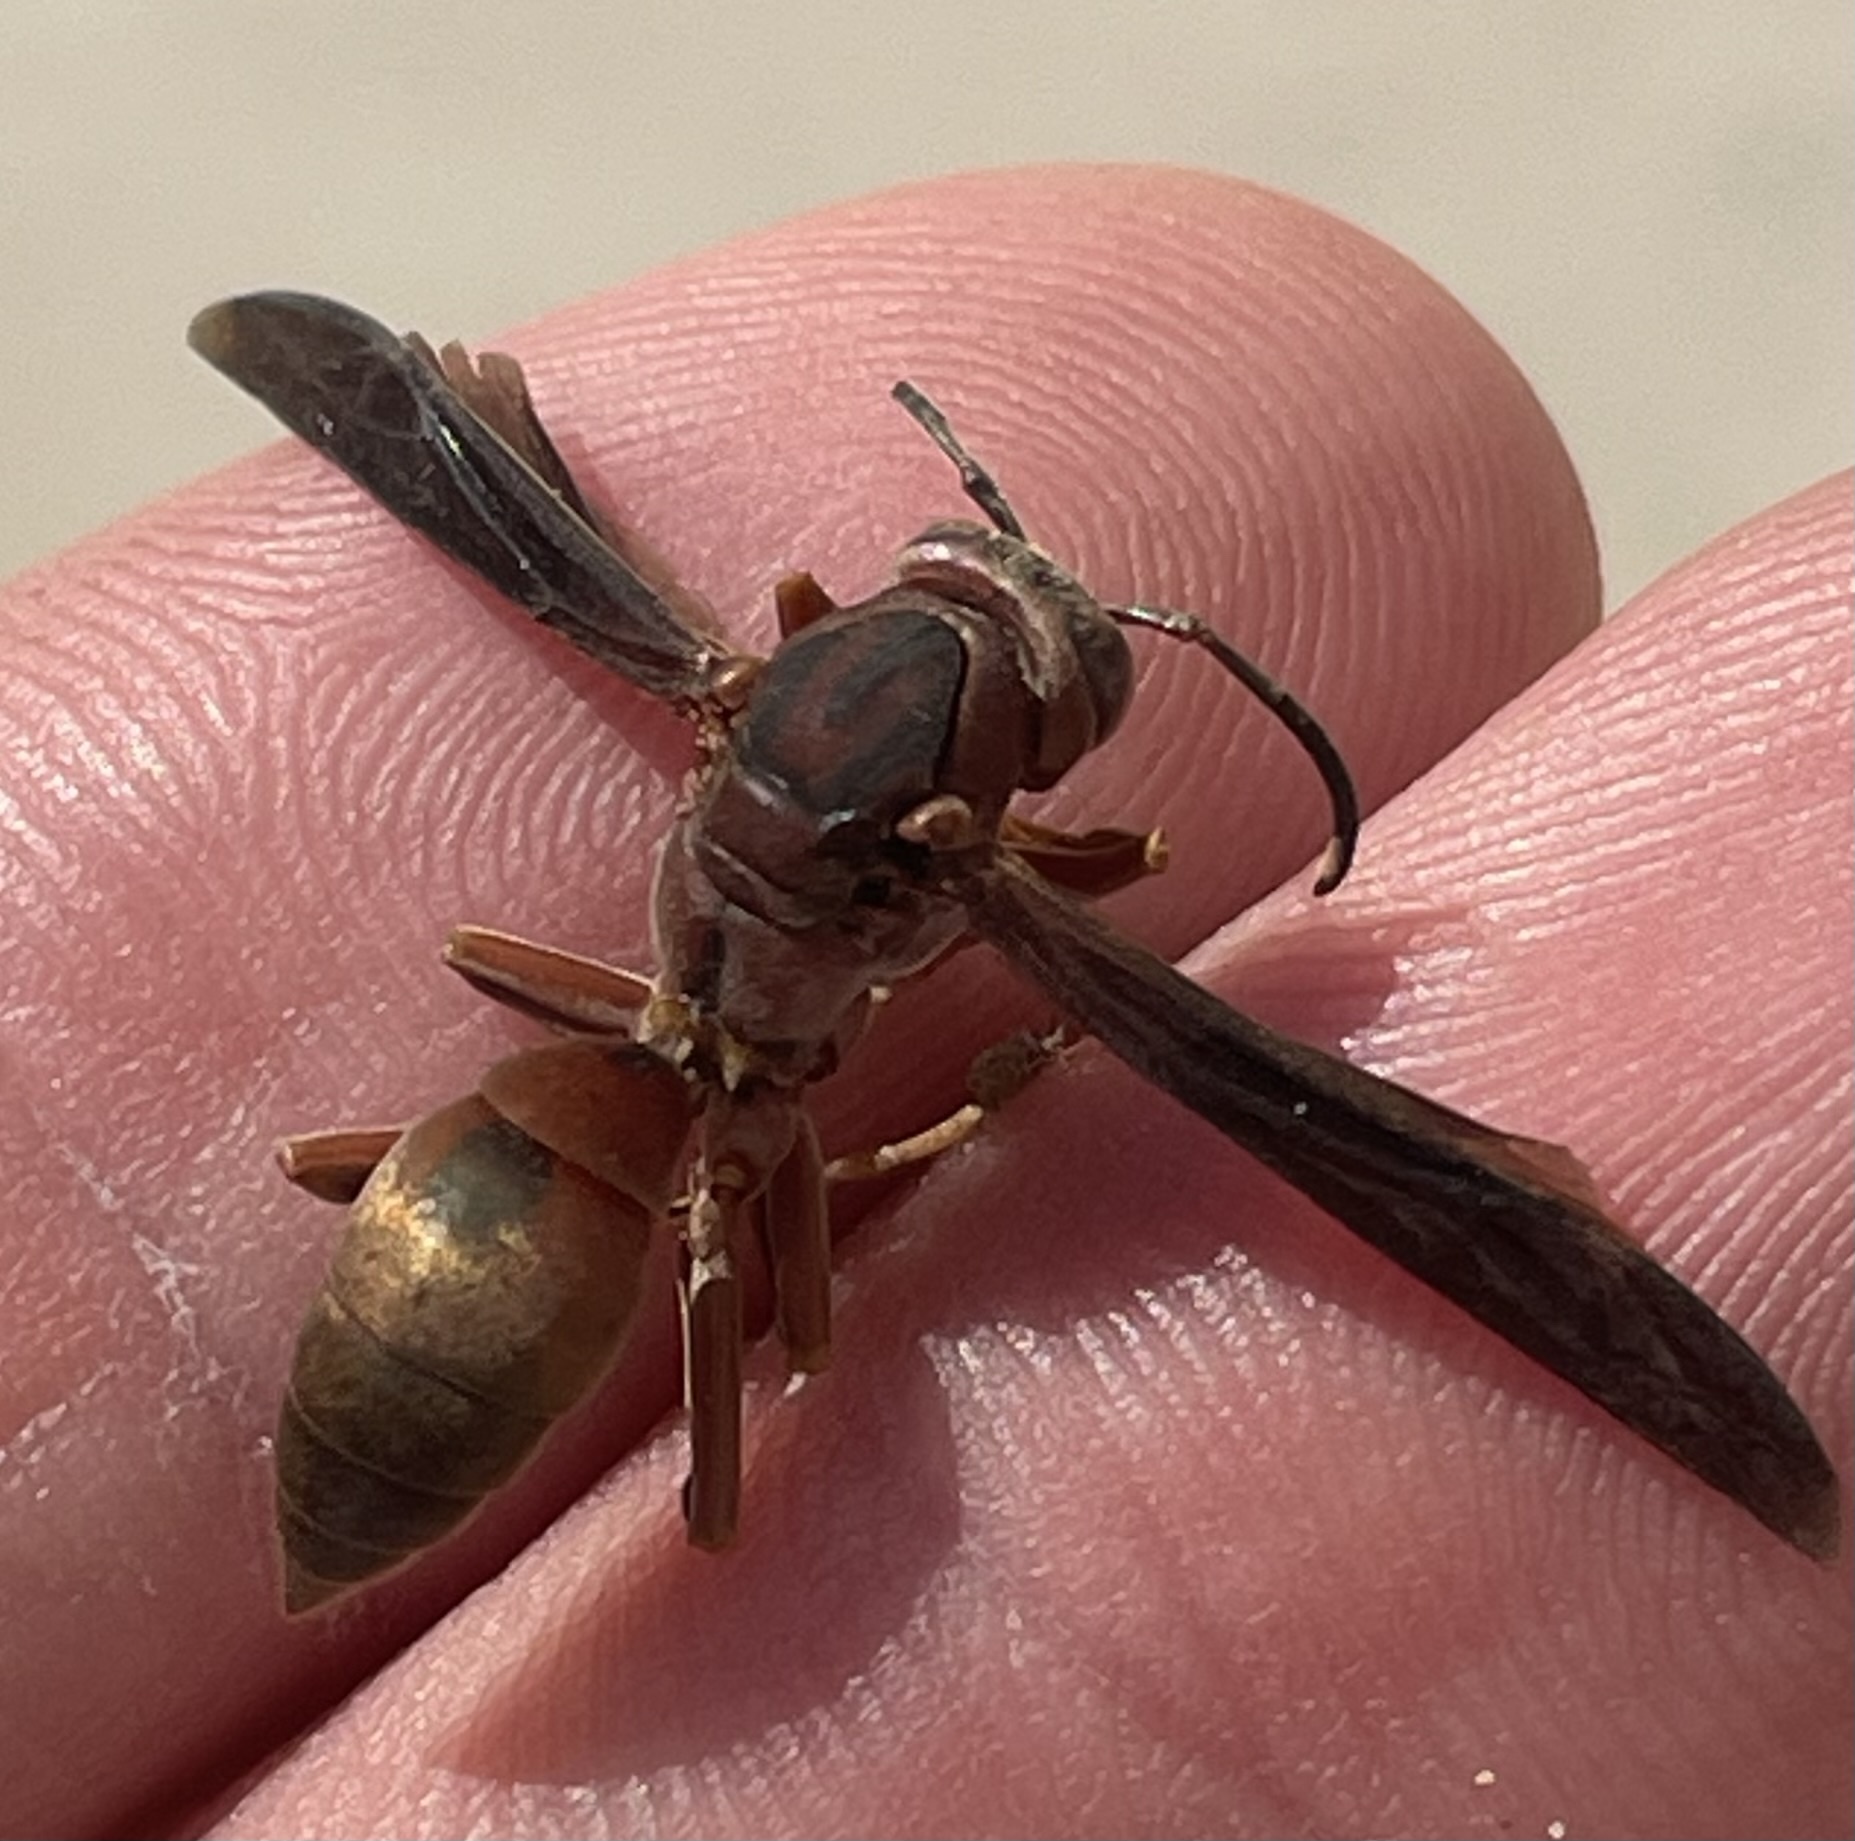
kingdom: Animalia
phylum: Arthropoda
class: Insecta
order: Hymenoptera
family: Eumenidae
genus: Polistes
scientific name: Polistes metricus
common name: Metric paper wasp
